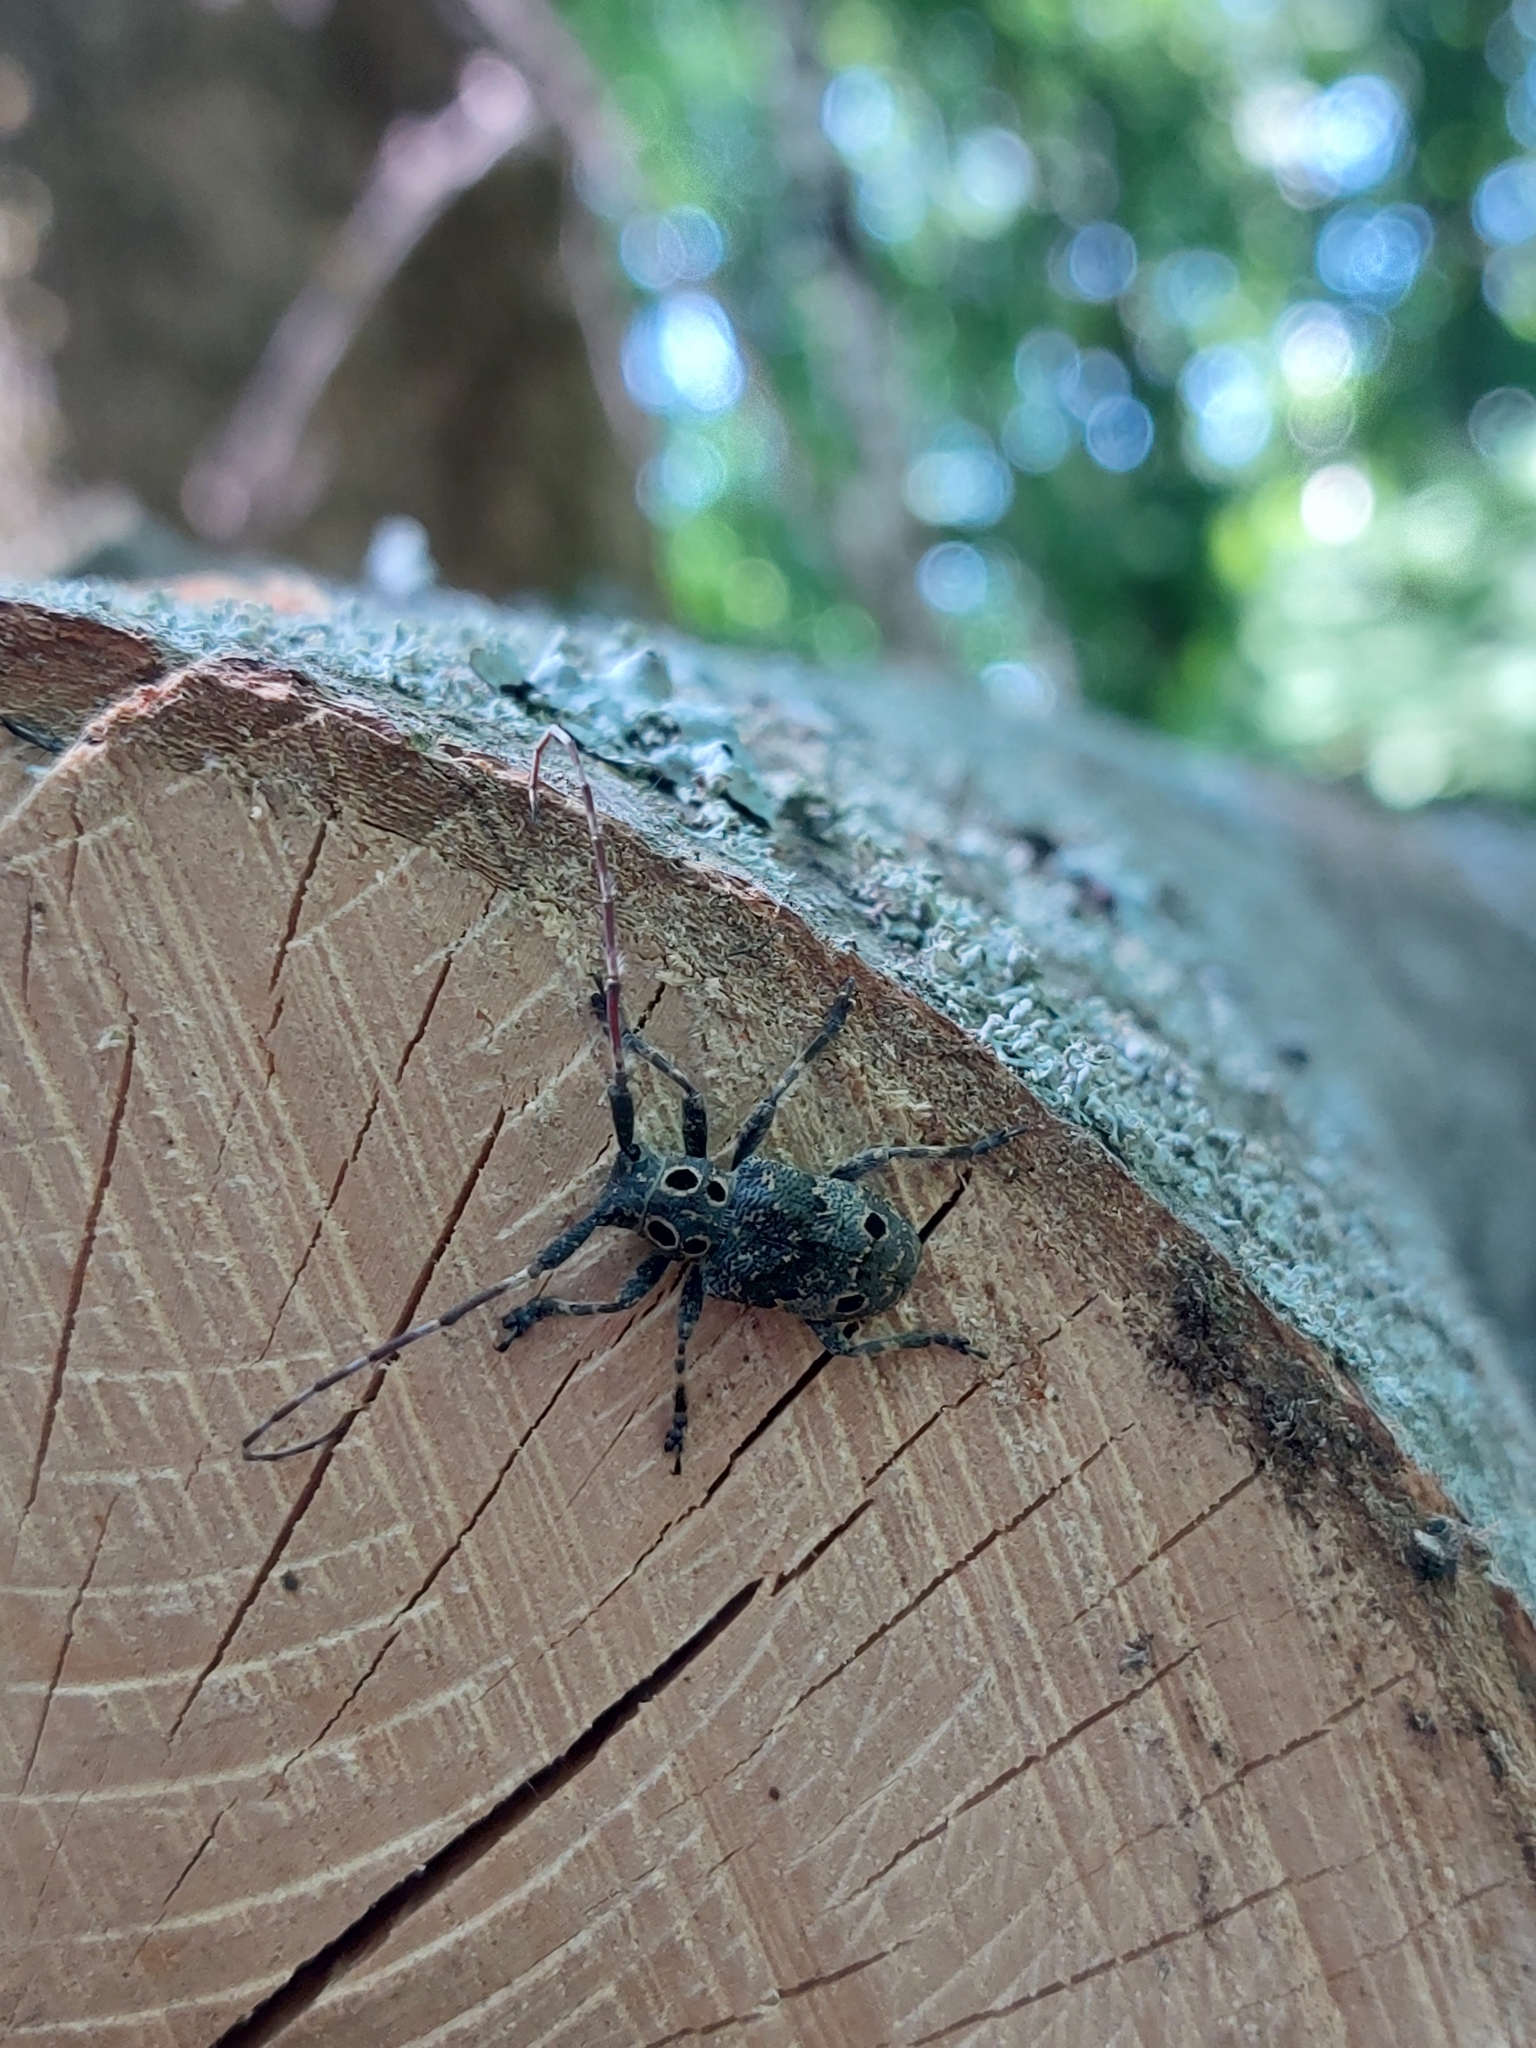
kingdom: Animalia
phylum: Arthropoda
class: Insecta
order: Coleoptera
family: Cerambycidae
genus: Mesosa
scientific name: Mesosa curculionoides
